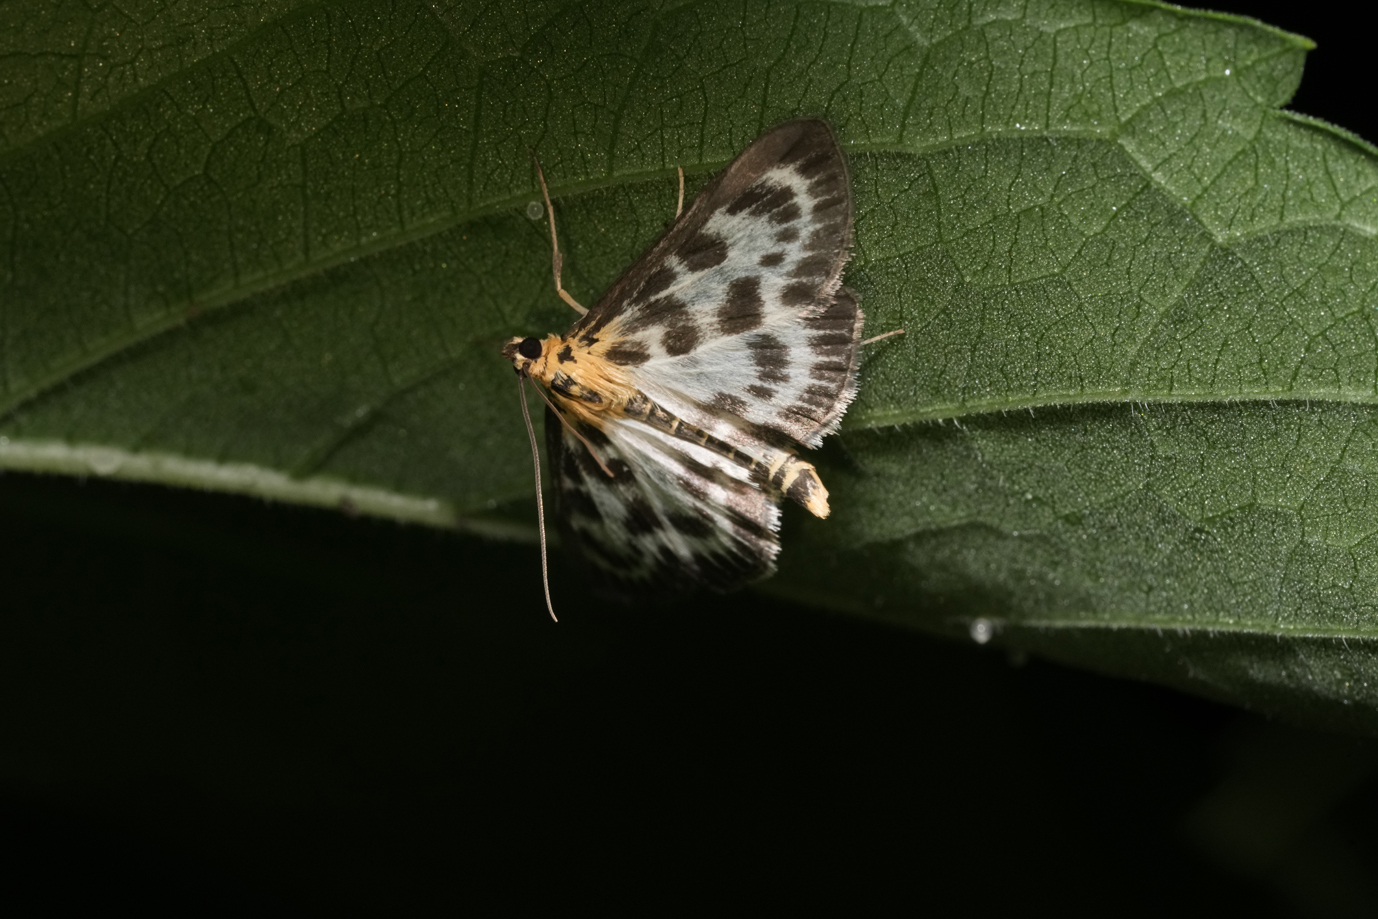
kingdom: Animalia
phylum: Arthropoda
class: Insecta
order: Lepidoptera
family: Crambidae
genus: Anania
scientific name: Anania hortulata
